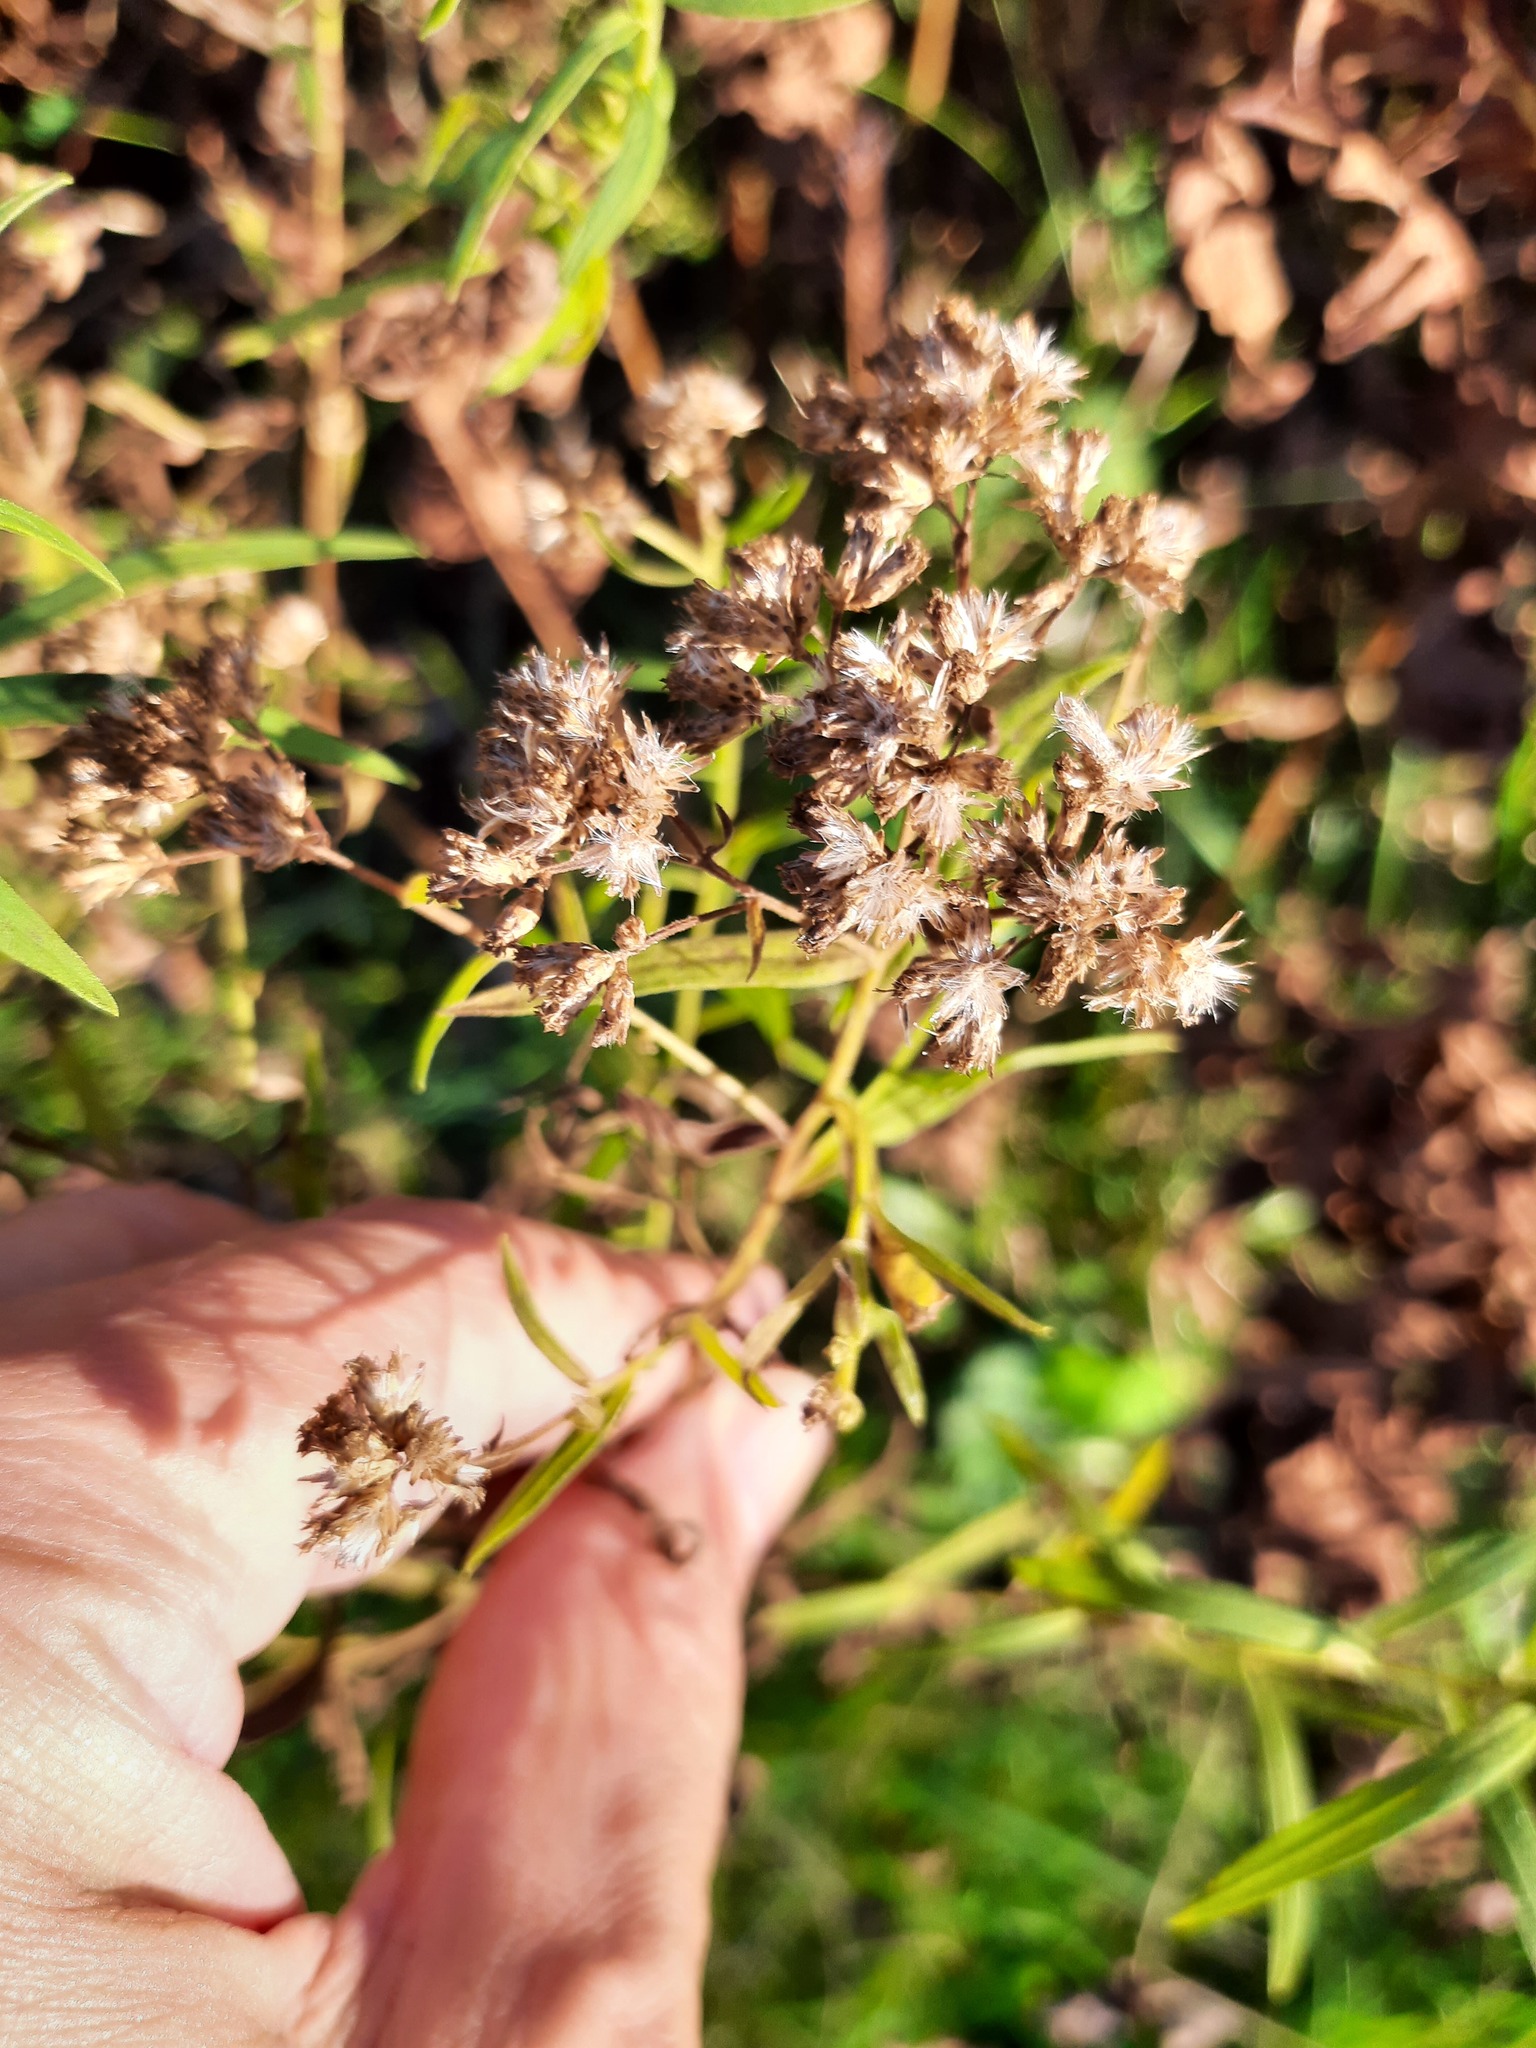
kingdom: Plantae
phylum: Tracheophyta
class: Magnoliopsida
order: Asterales
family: Asteraceae
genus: Euthamia
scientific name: Euthamia graminifolia
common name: Common goldentop
